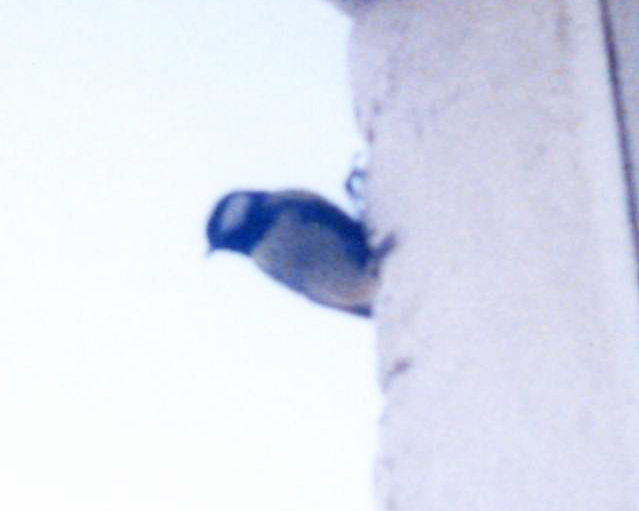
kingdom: Animalia
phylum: Chordata
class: Aves
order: Passeriformes
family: Paridae
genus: Parus
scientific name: Parus major
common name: Great tit
